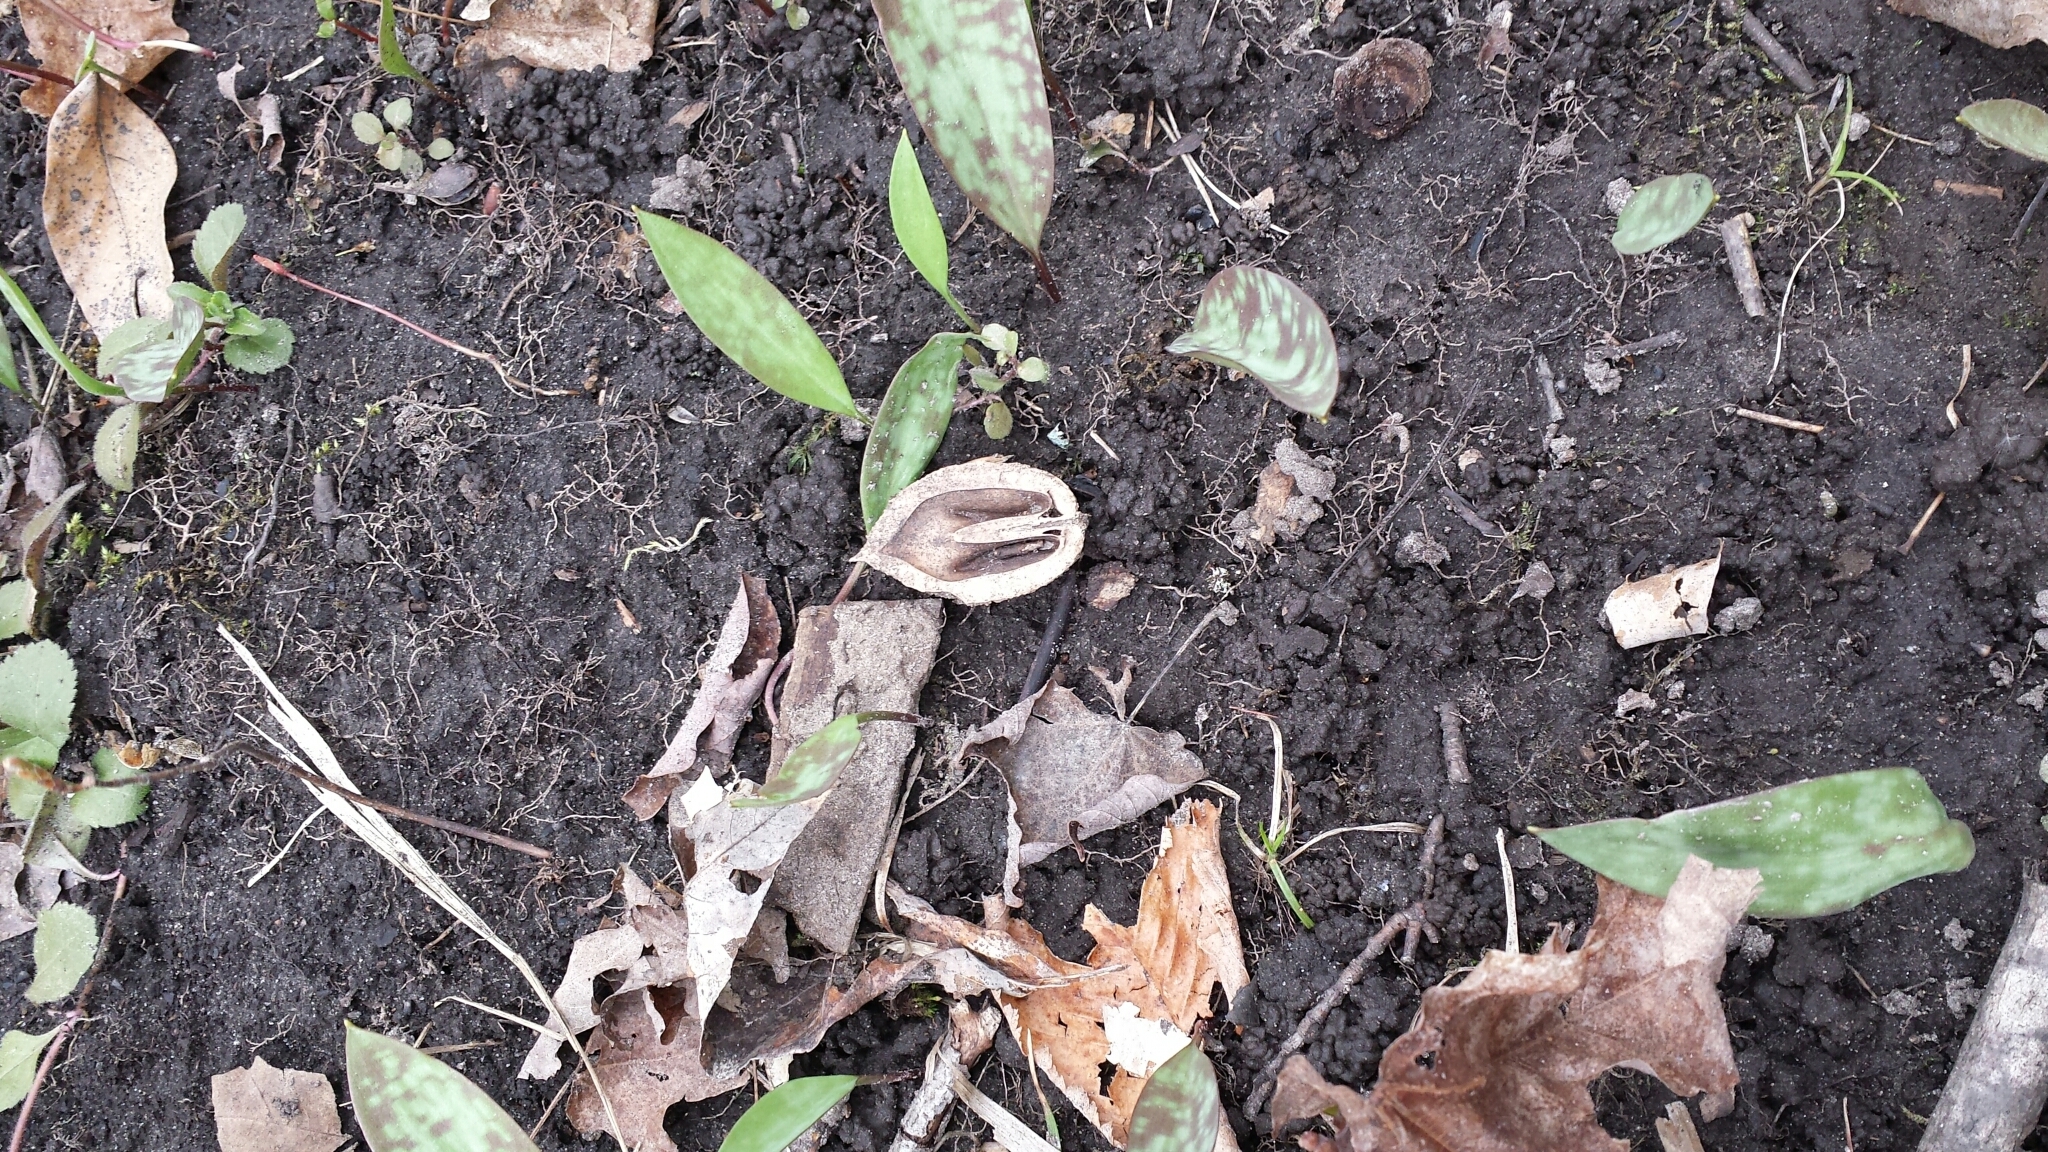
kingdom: Plantae
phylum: Tracheophyta
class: Magnoliopsida
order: Fagales
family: Juglandaceae
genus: Juglans
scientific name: Juglans cinerea
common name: Butternut
